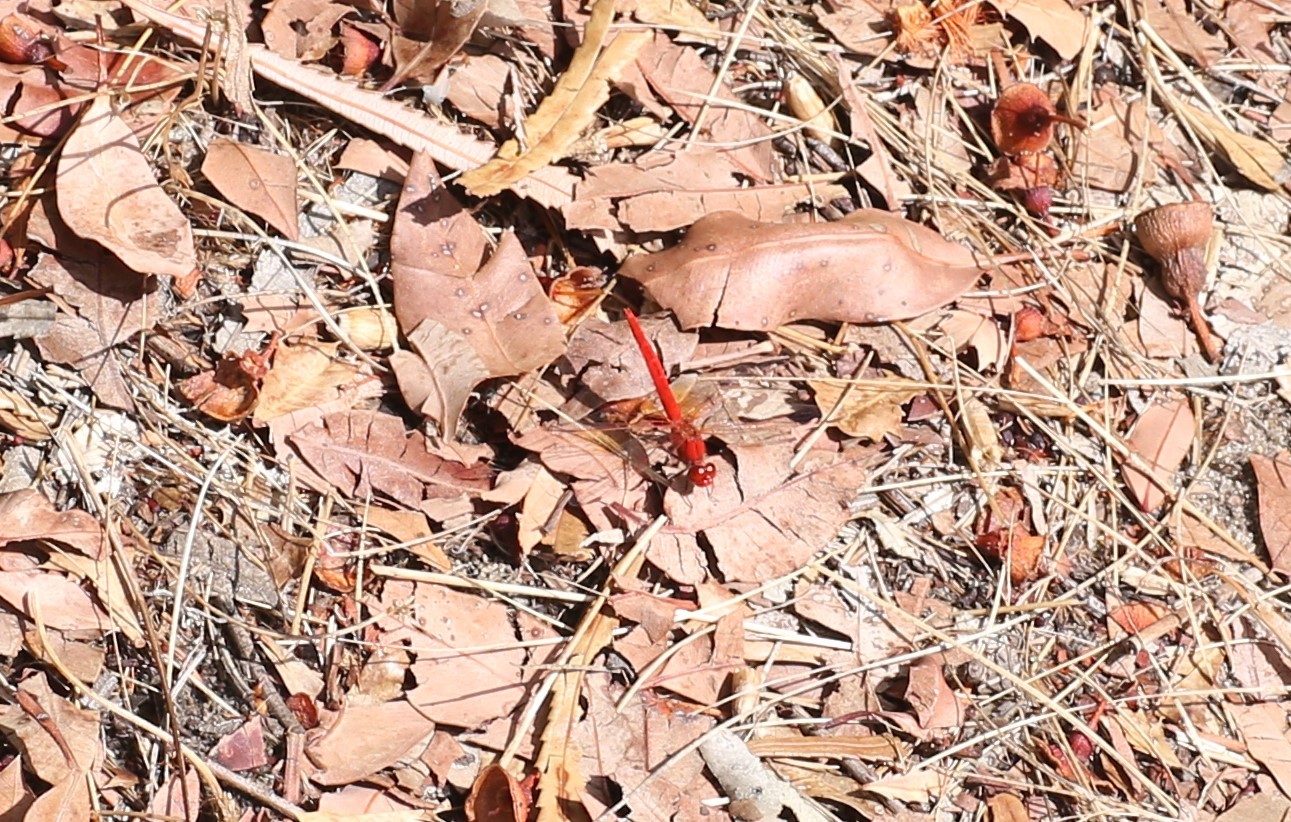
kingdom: Animalia
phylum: Arthropoda
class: Insecta
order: Odonata
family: Libellulidae
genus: Diplacodes
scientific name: Diplacodes haematodes
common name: Scarlet percher
